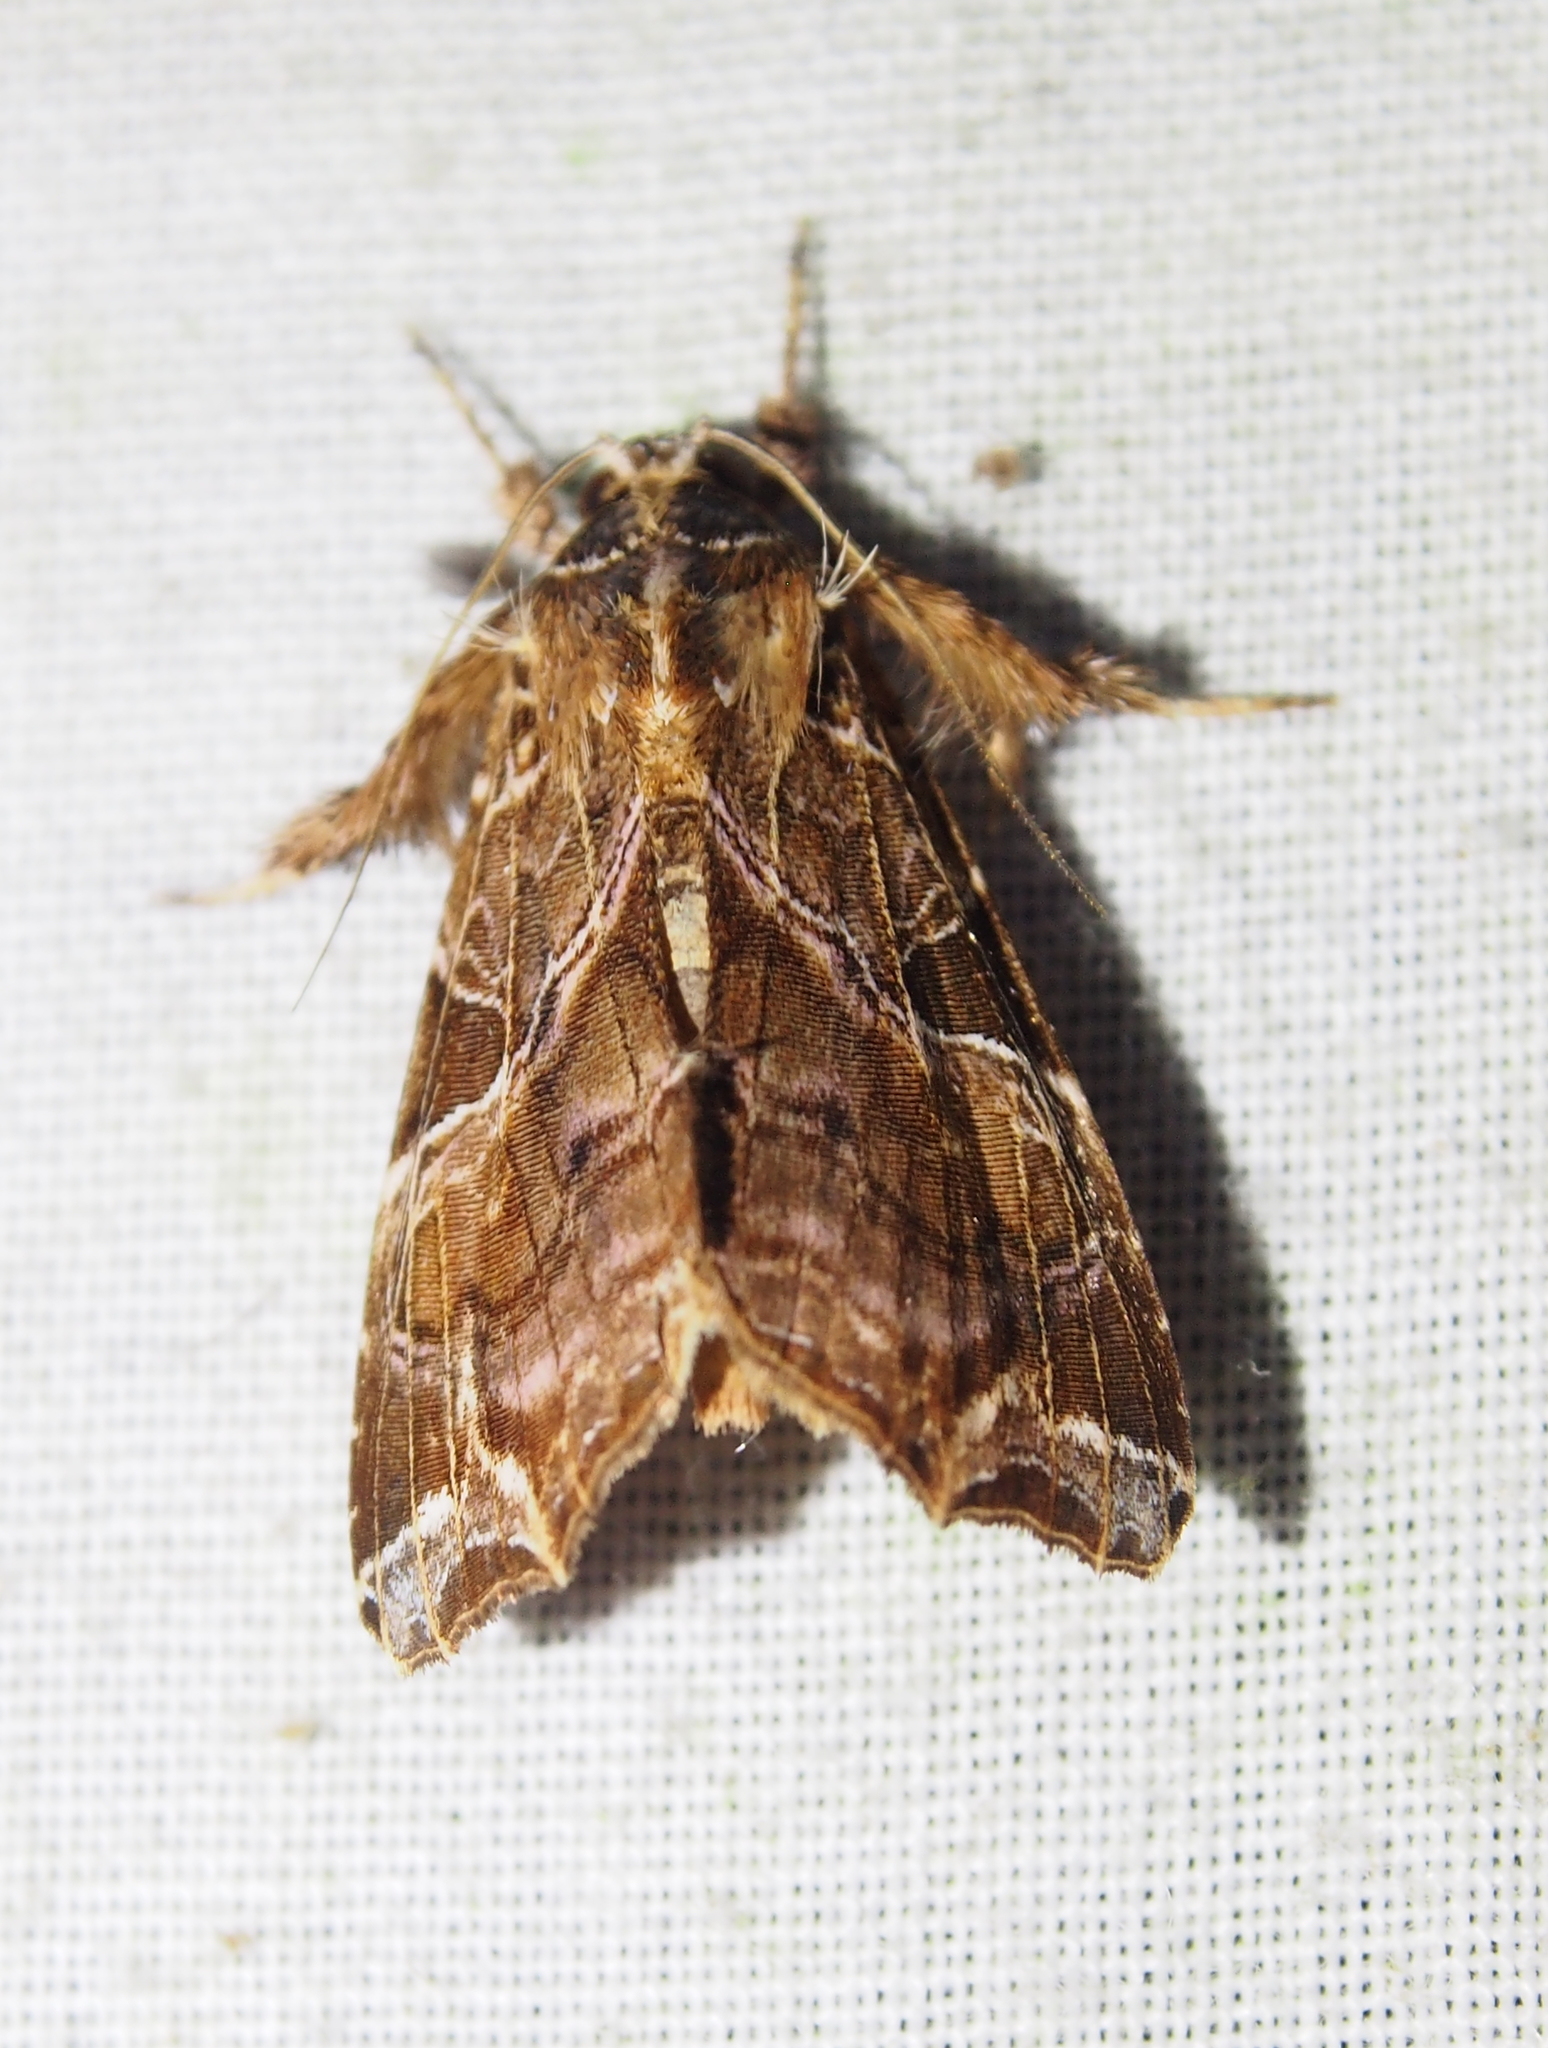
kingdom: Animalia
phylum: Arthropoda
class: Insecta
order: Lepidoptera
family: Noctuidae
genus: Callopistria
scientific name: Callopistria floridensis
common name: Florida fern moth
